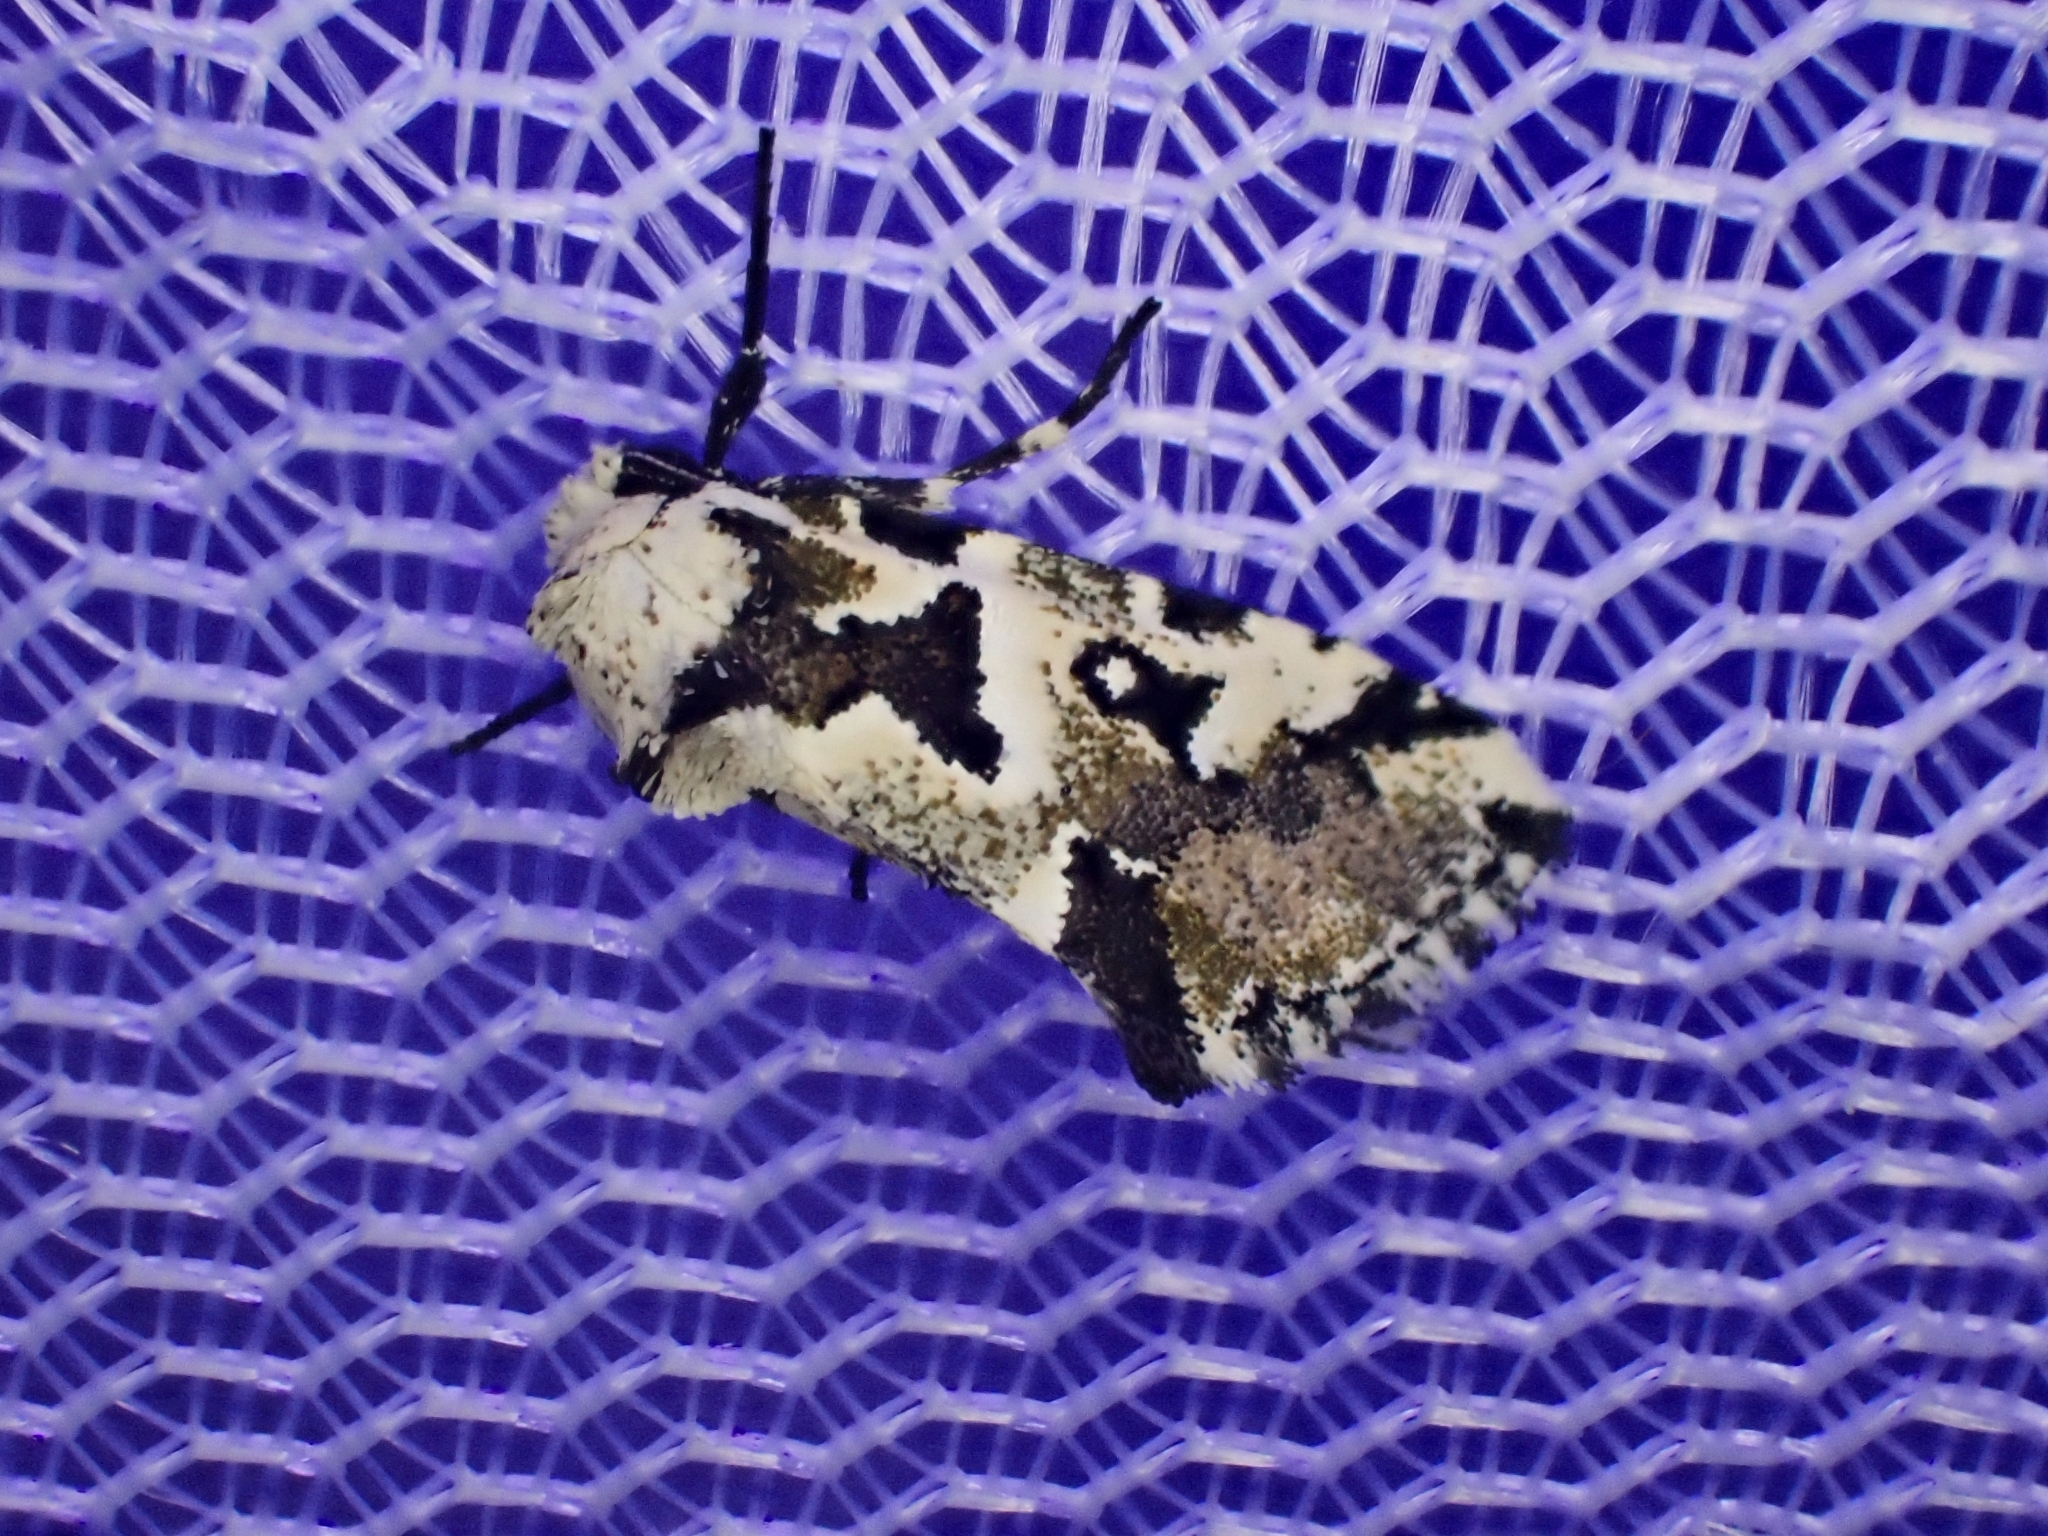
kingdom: Animalia
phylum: Arthropoda
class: Insecta
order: Lepidoptera
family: Noctuidae
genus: Leucotrachea
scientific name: Leucotrachea melanodonta
